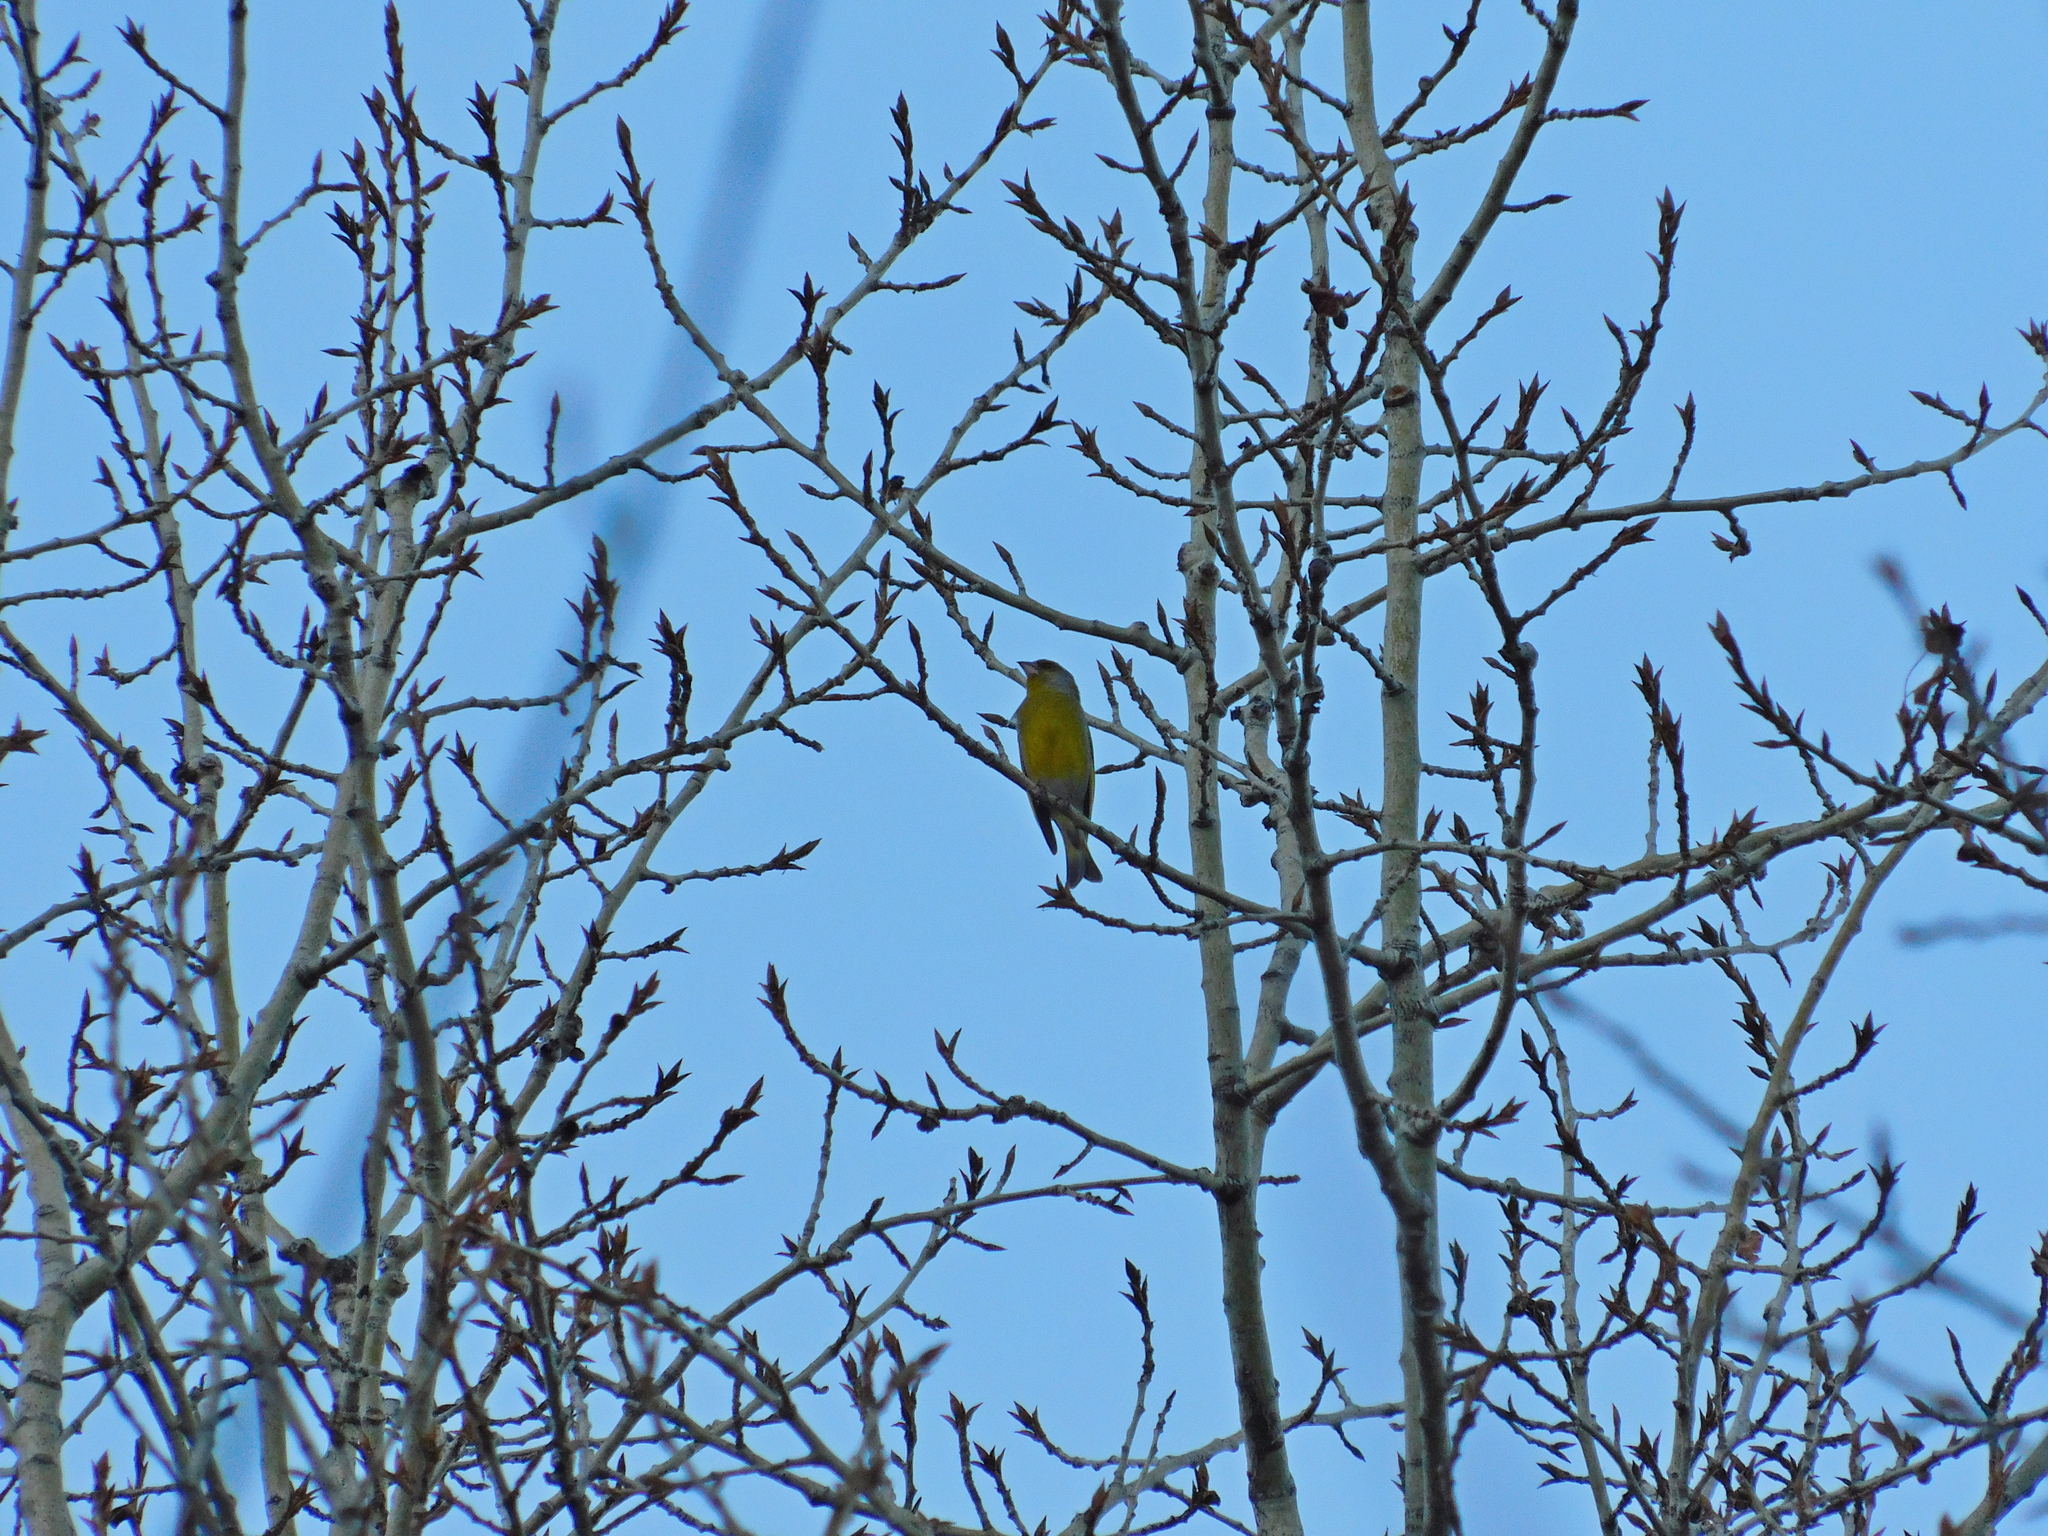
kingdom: Plantae
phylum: Tracheophyta
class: Liliopsida
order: Poales
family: Poaceae
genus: Chloris
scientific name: Chloris chloris
